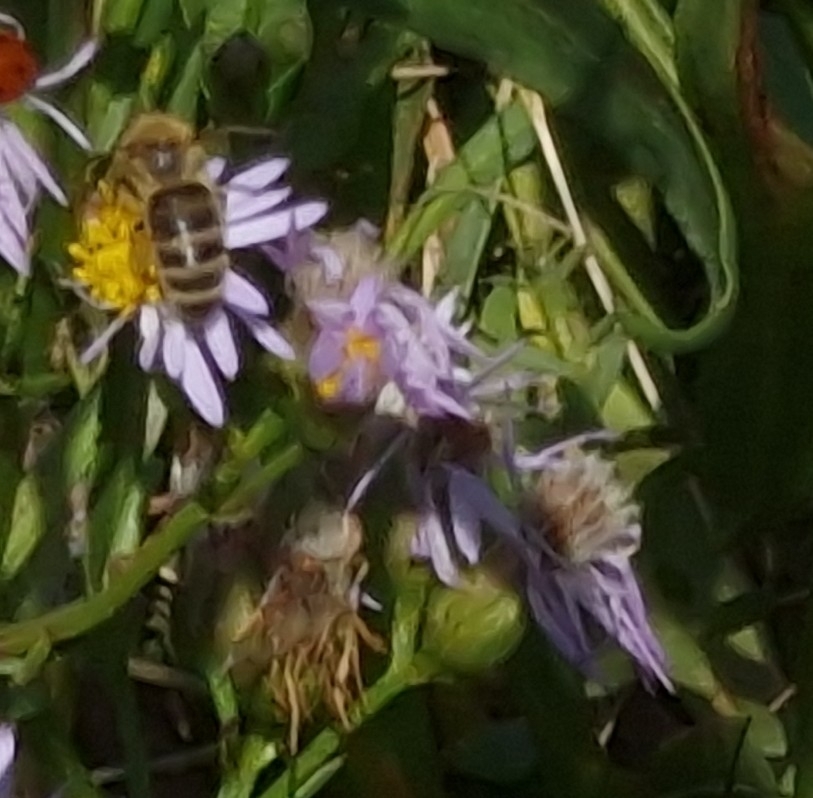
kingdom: Animalia
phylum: Arthropoda
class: Insecta
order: Hymenoptera
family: Apidae
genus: Apis
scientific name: Apis mellifera
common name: Honey bee
